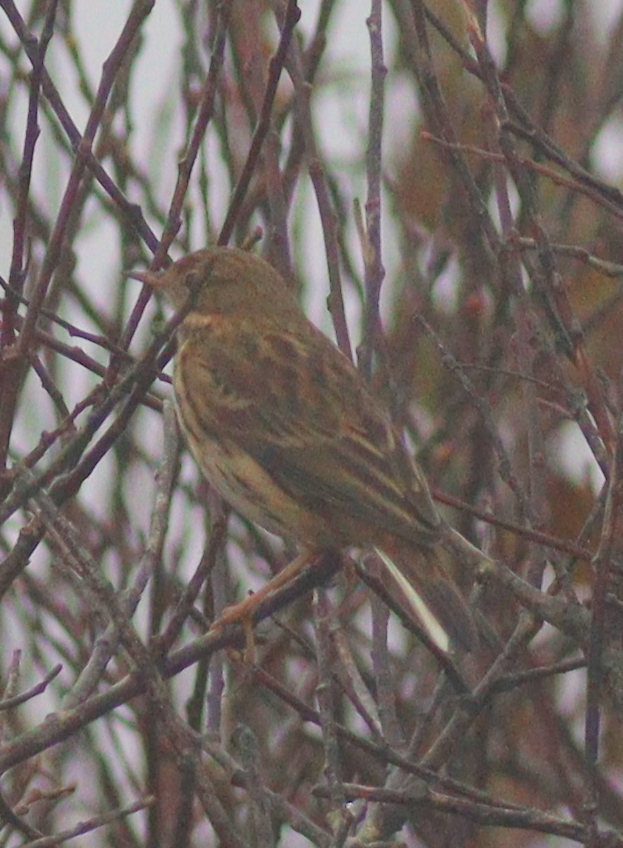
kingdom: Animalia
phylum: Chordata
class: Aves
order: Passeriformes
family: Motacillidae
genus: Anthus
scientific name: Anthus pratensis
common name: Meadow pipit
